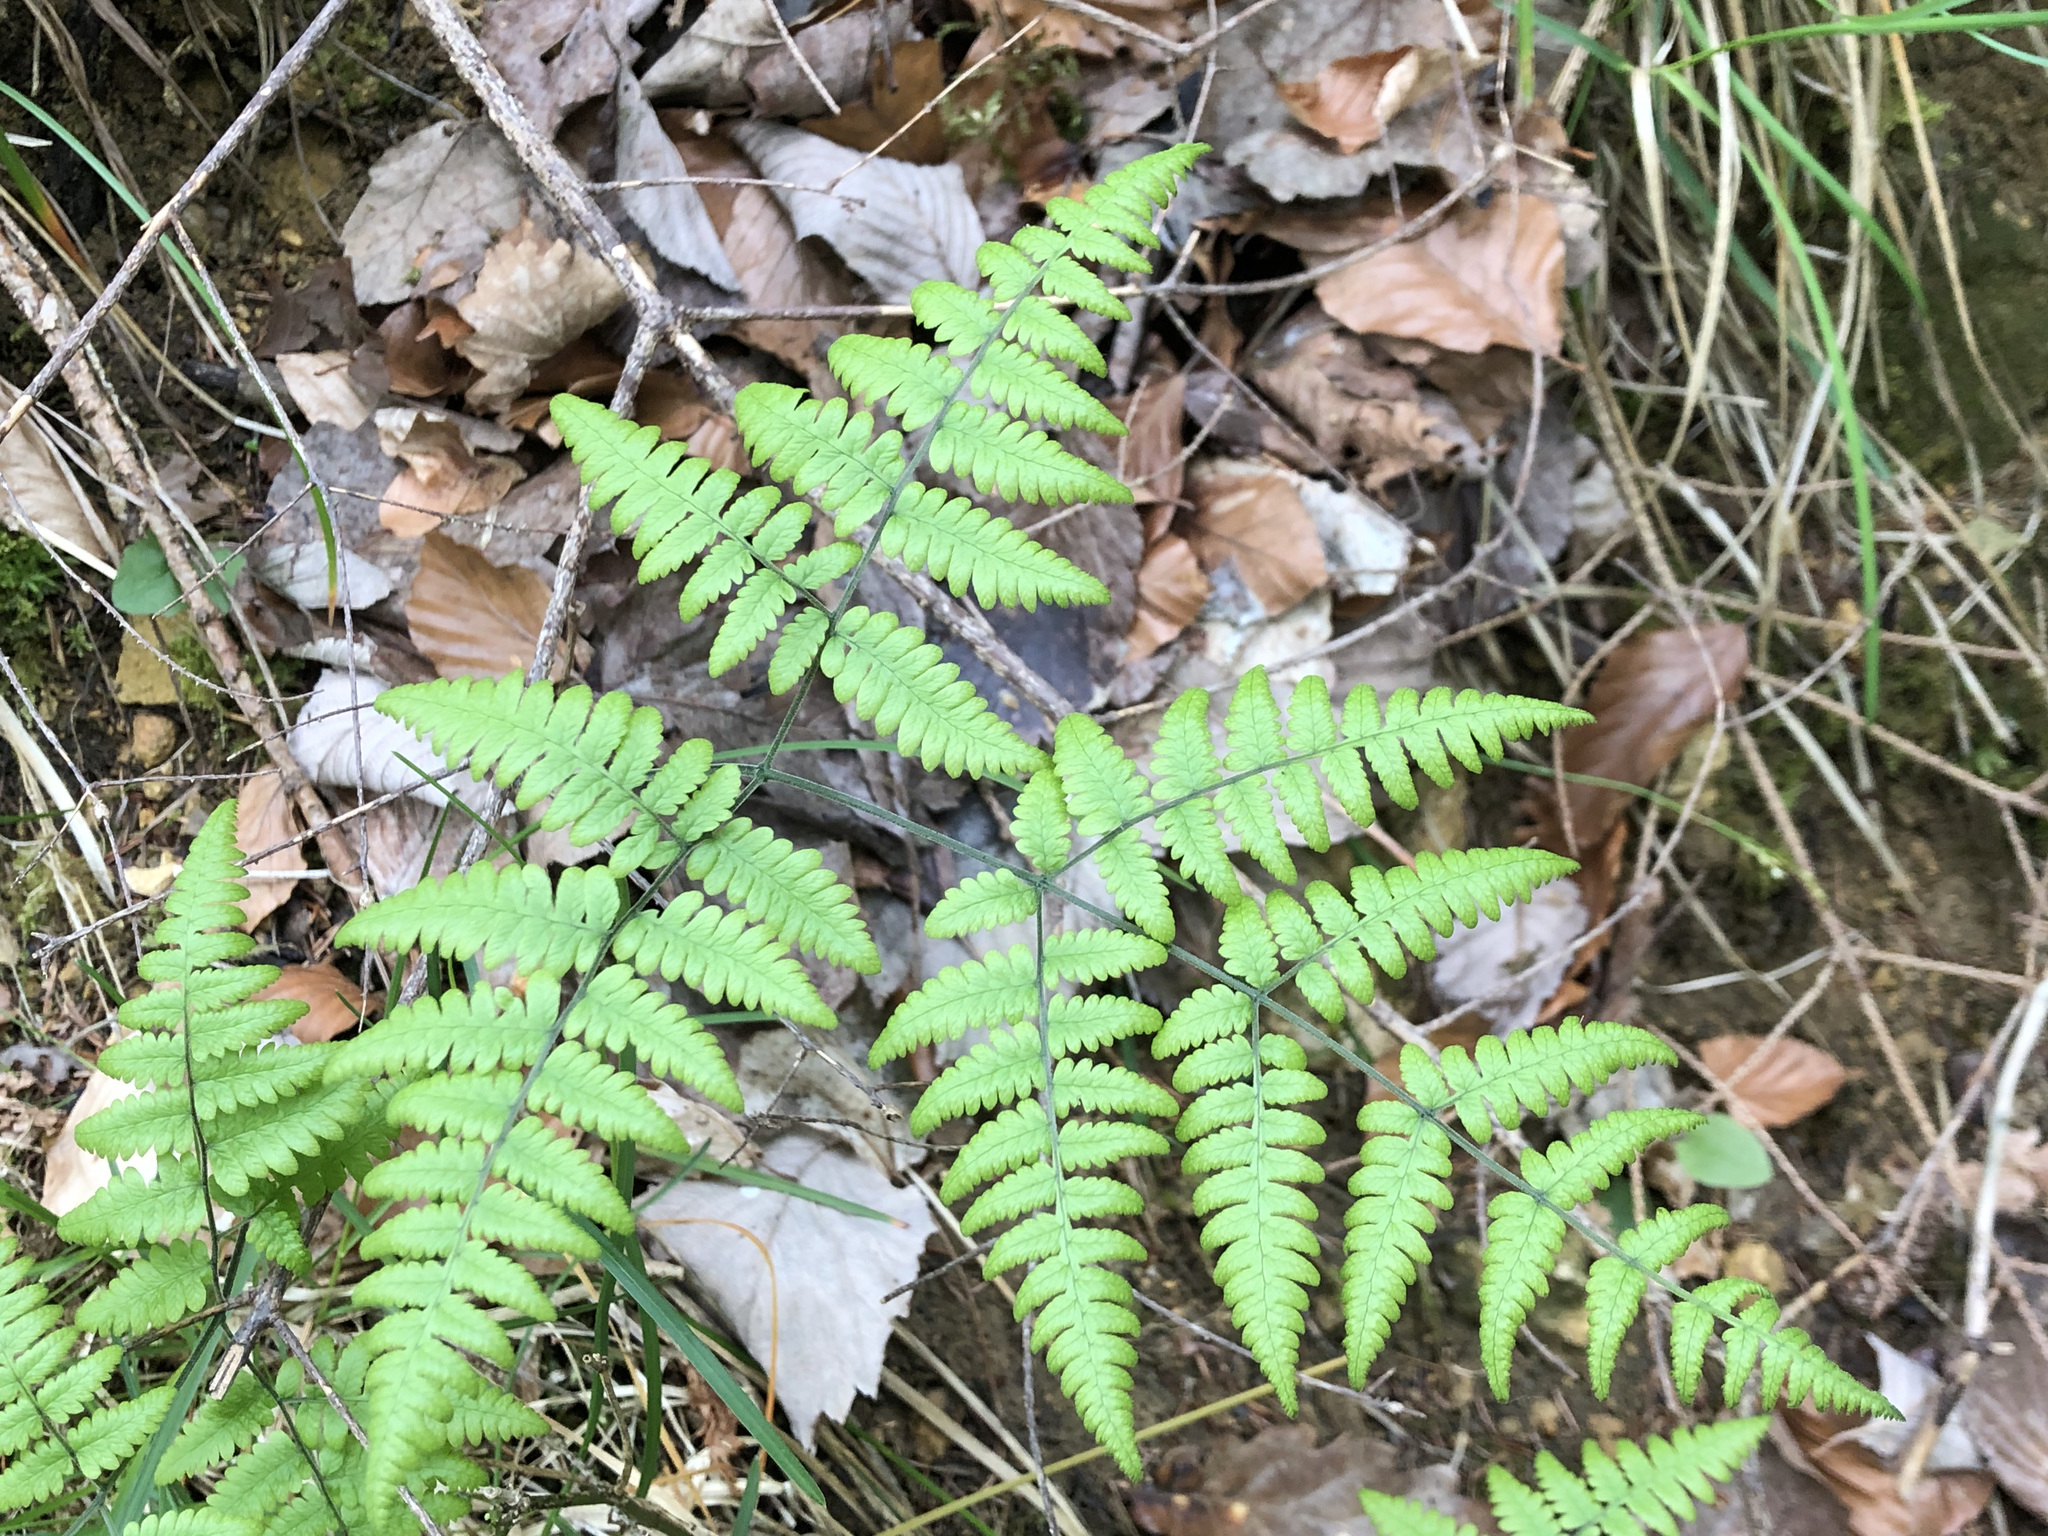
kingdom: Plantae
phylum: Tracheophyta
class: Polypodiopsida
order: Polypodiales
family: Cystopteridaceae
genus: Gymnocarpium
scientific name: Gymnocarpium robertianum
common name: Limestone fern
